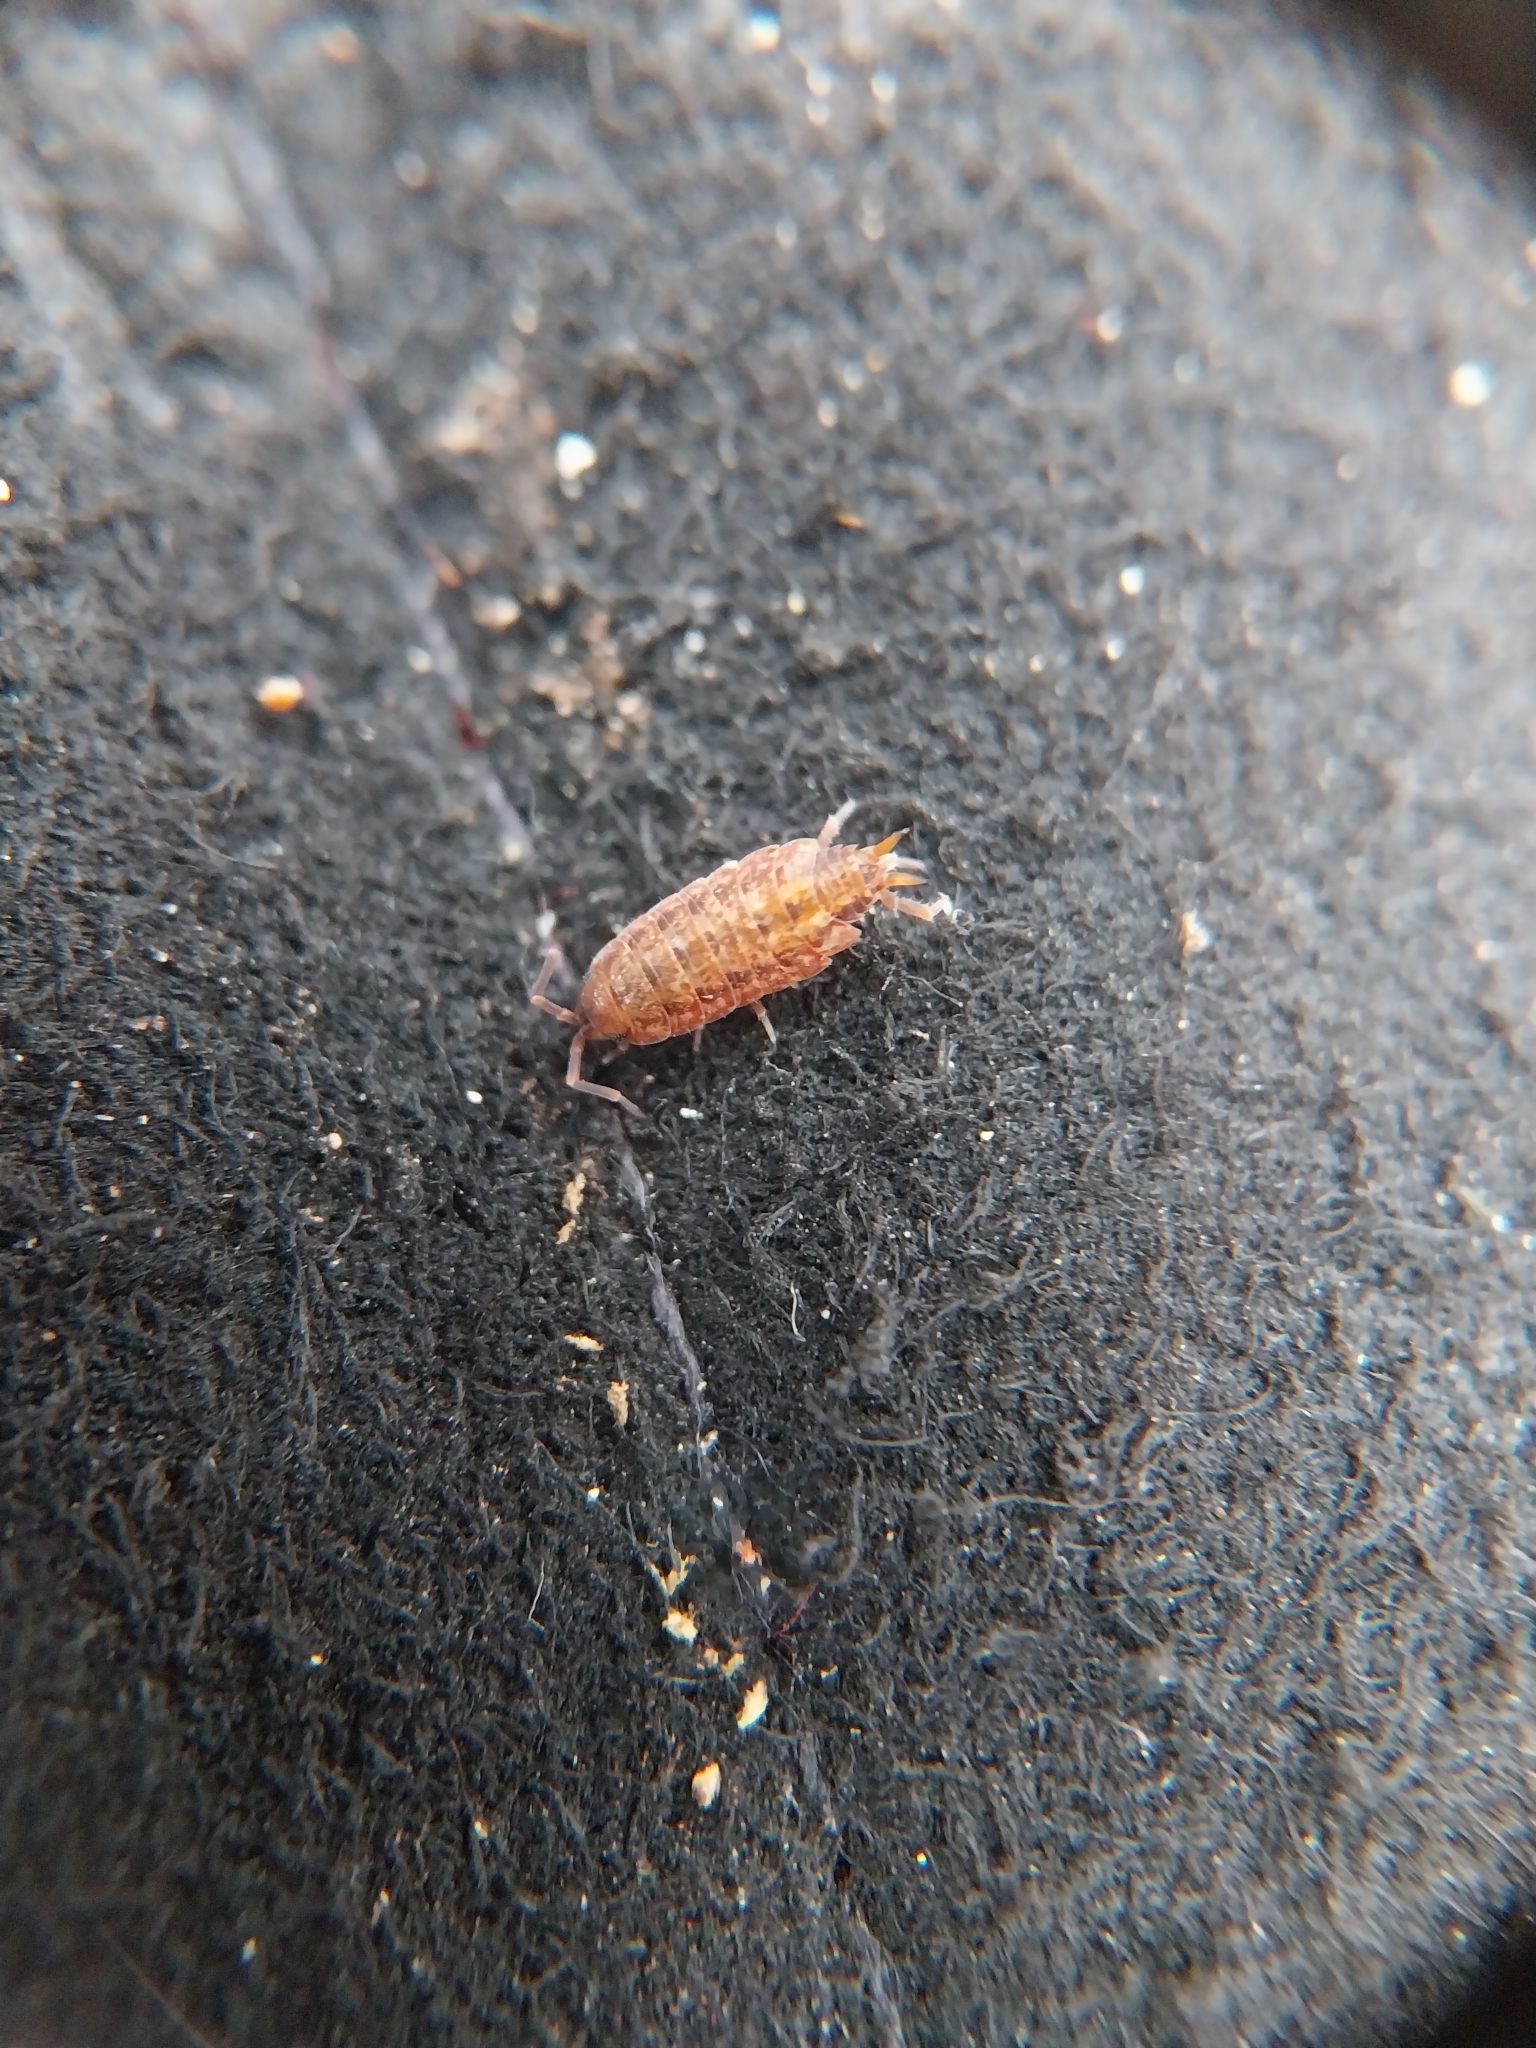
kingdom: Animalia
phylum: Arthropoda
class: Malacostraca
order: Isopoda
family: Porcellionidae
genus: Porcellionides
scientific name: Porcellionides cingendus
